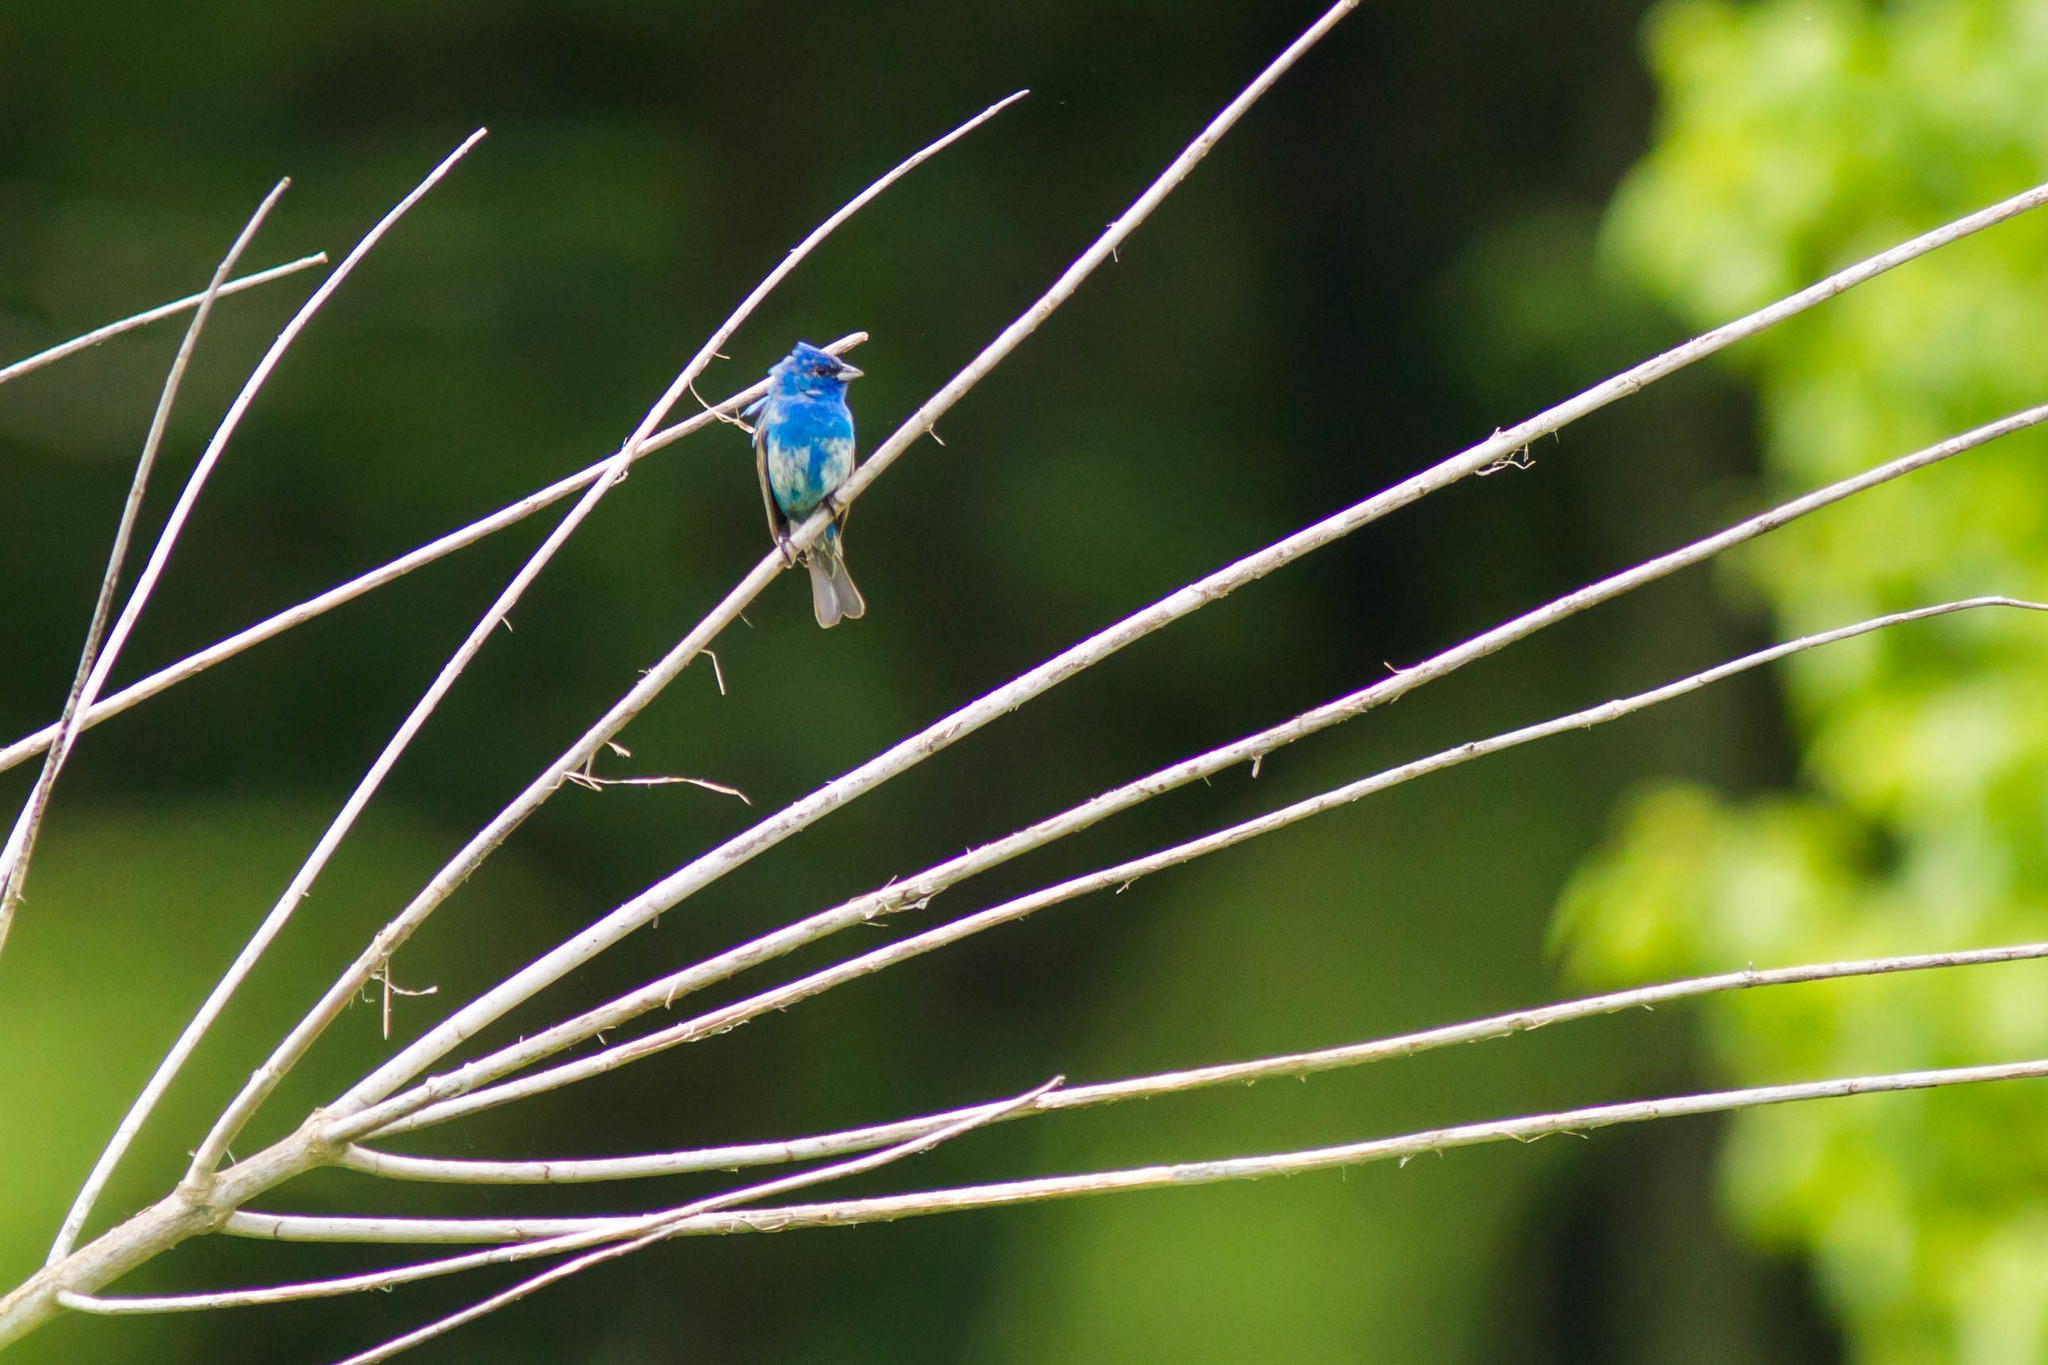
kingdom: Animalia
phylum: Chordata
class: Aves
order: Passeriformes
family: Cardinalidae
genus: Passerina
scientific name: Passerina cyanea
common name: Indigo bunting
